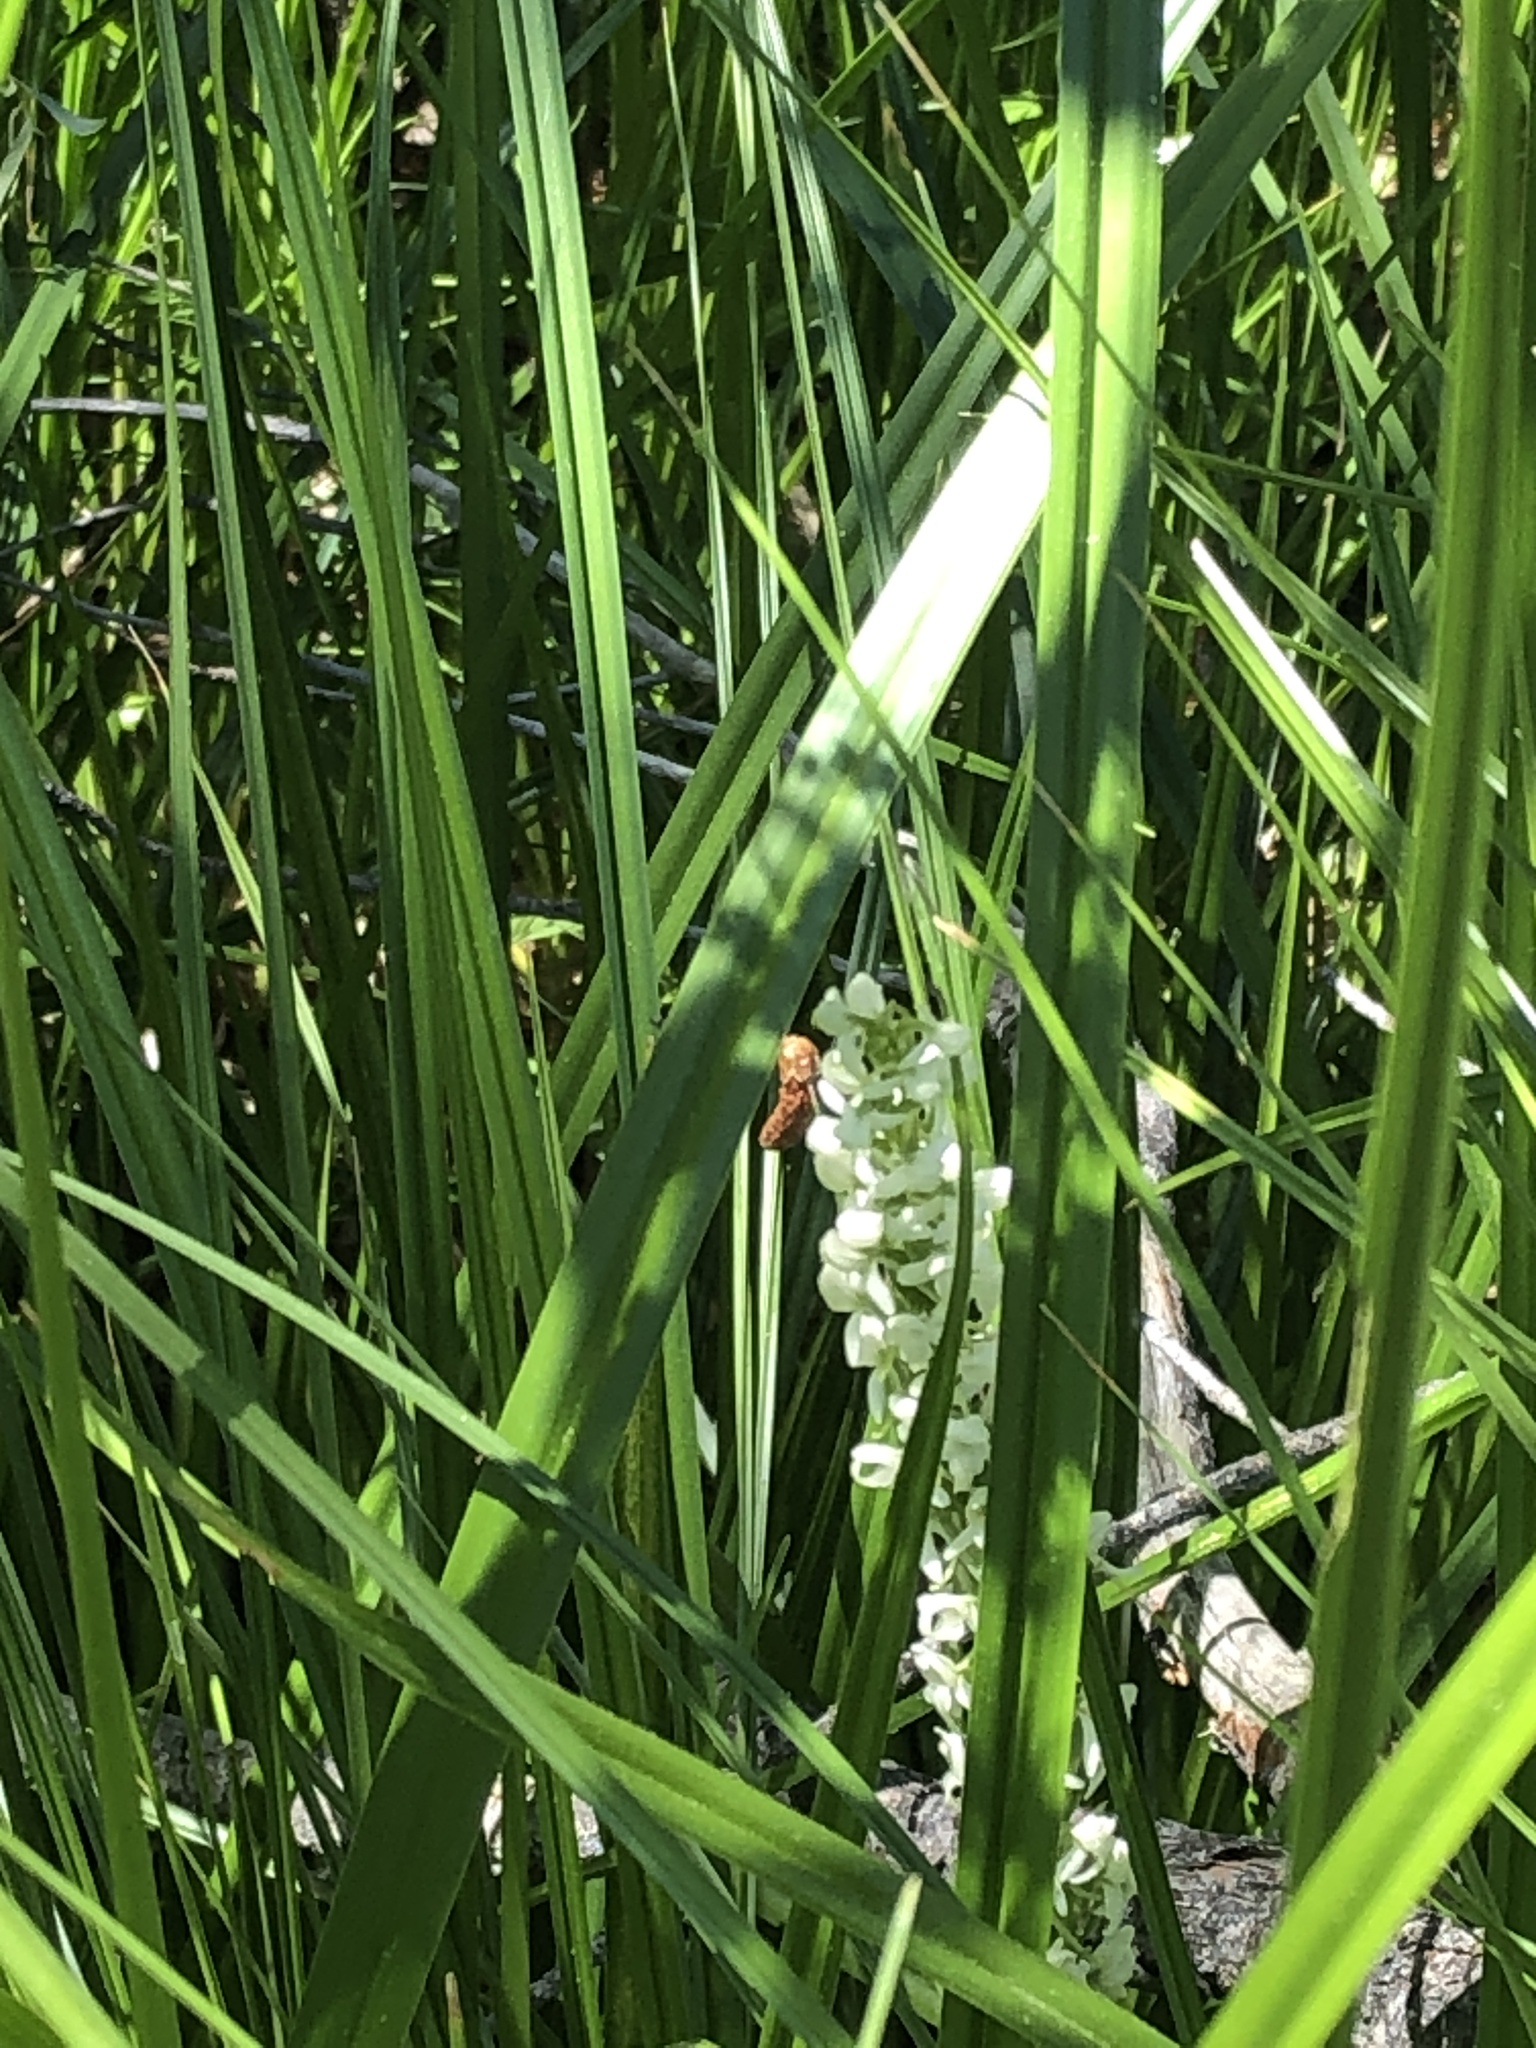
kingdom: Plantae
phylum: Tracheophyta
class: Liliopsida
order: Asparagales
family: Orchidaceae
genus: Platanthera
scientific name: Platanthera dilatata
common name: Bog candles
